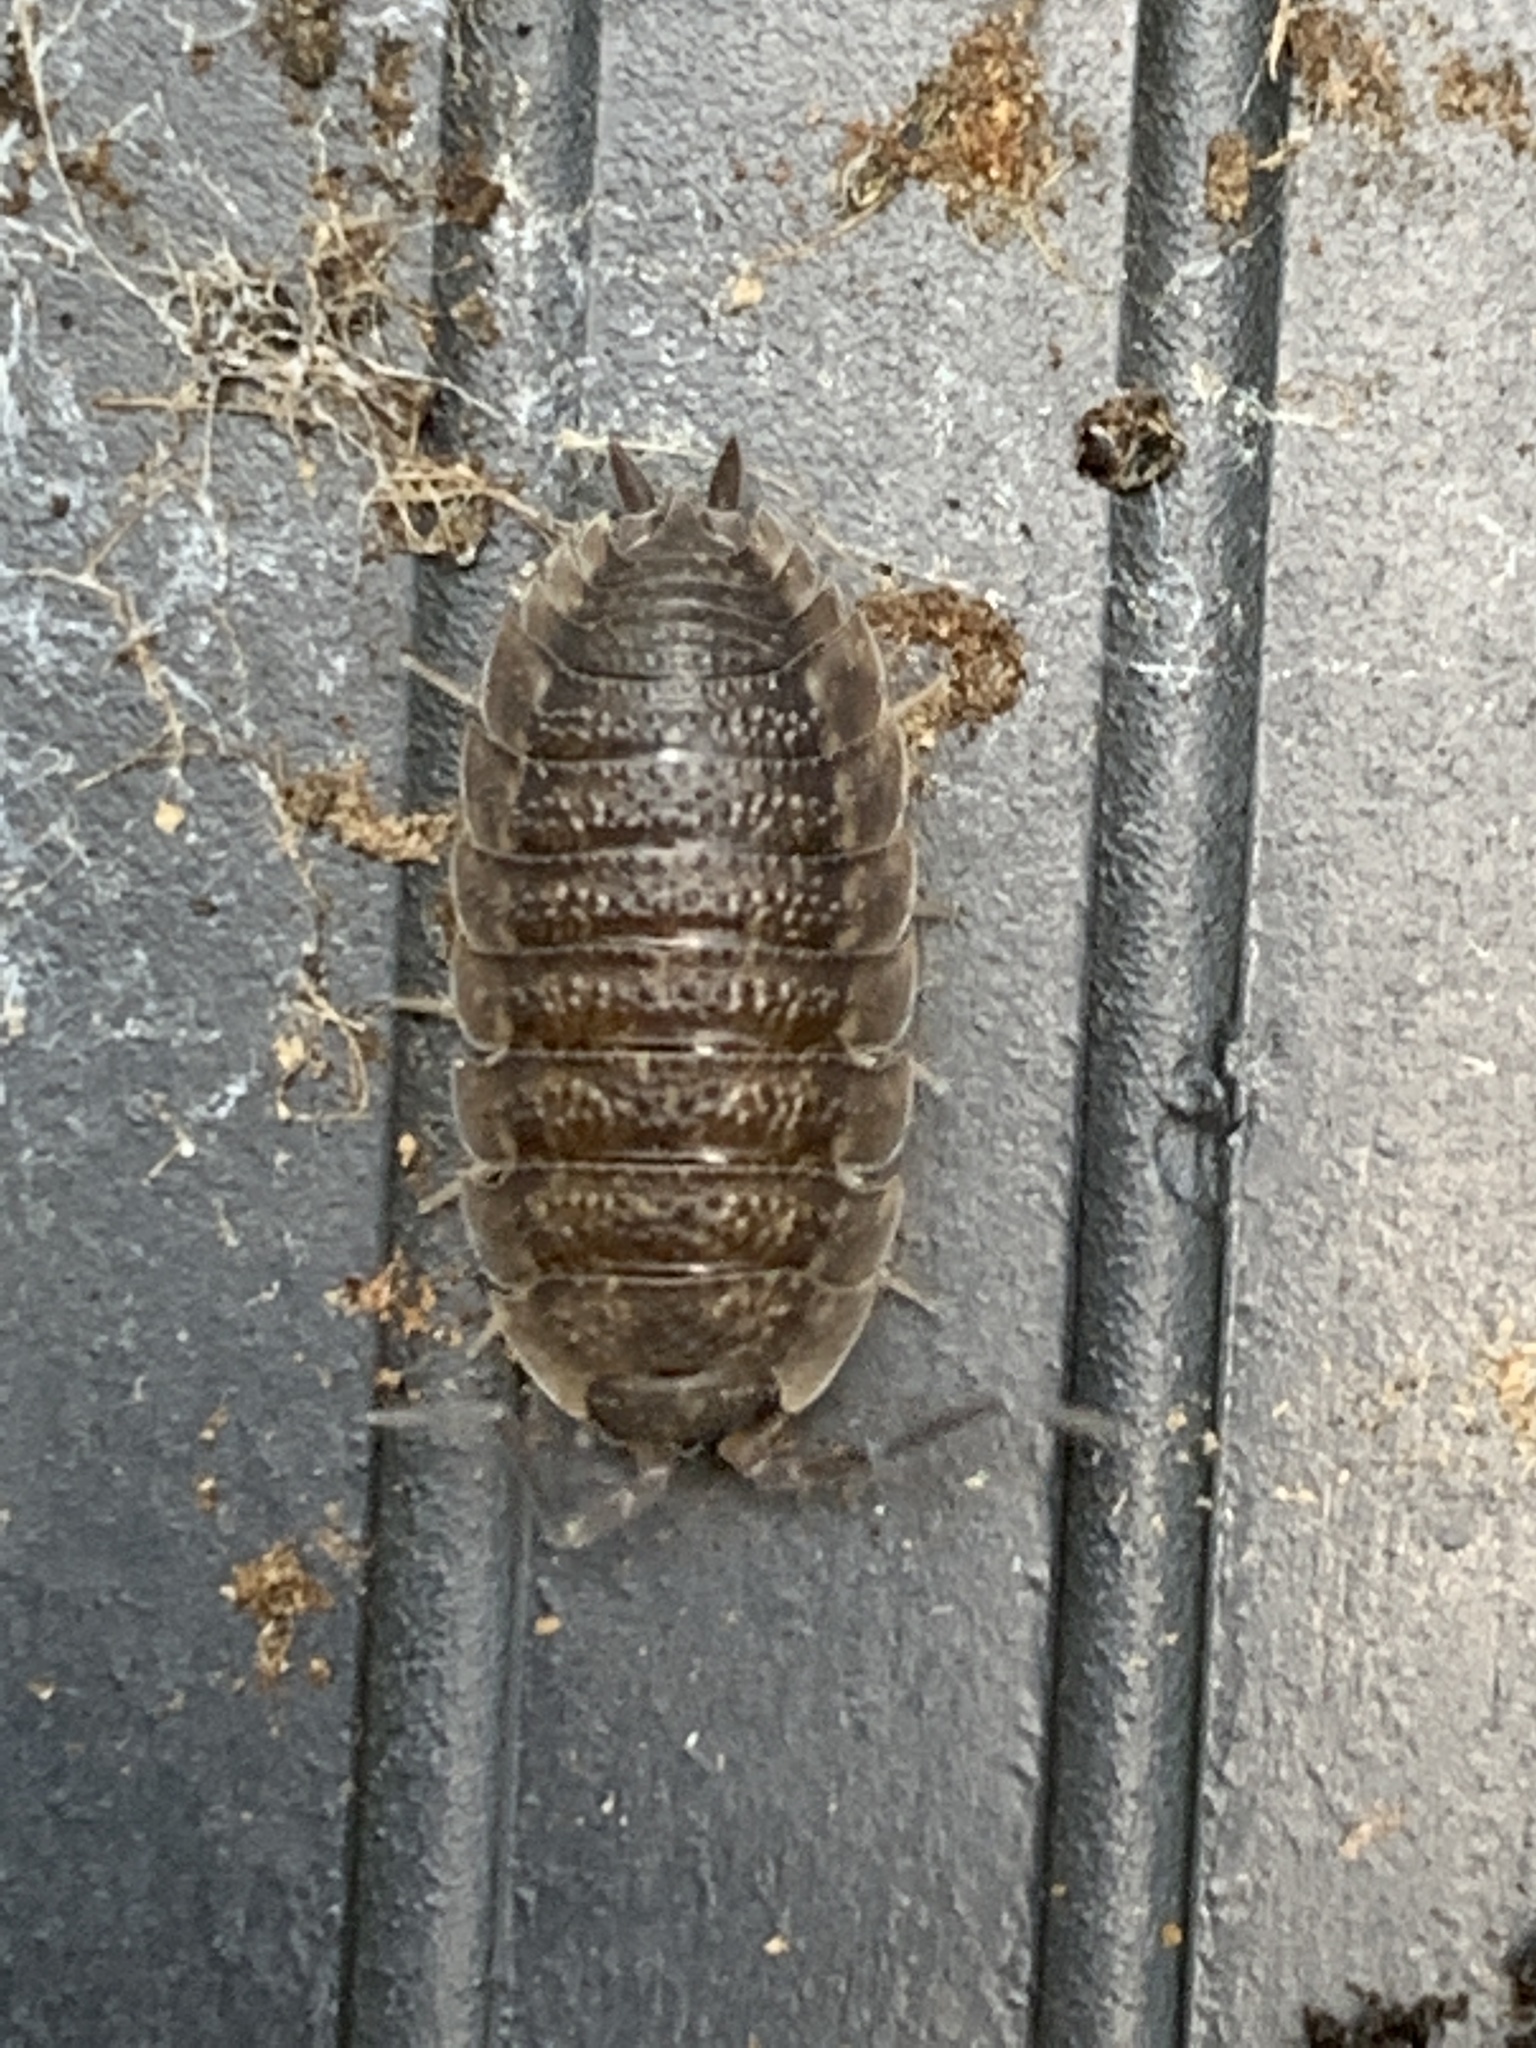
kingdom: Animalia
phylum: Arthropoda
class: Malacostraca
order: Isopoda
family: Porcellionidae
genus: Porcellio
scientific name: Porcellio scaber
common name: Common rough woodlouse
